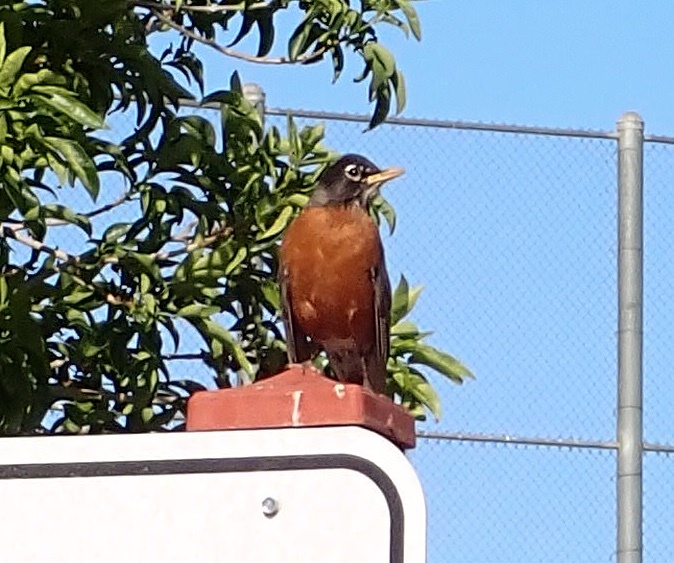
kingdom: Animalia
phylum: Chordata
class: Aves
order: Passeriformes
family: Turdidae
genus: Turdus
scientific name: Turdus migratorius
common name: American robin
